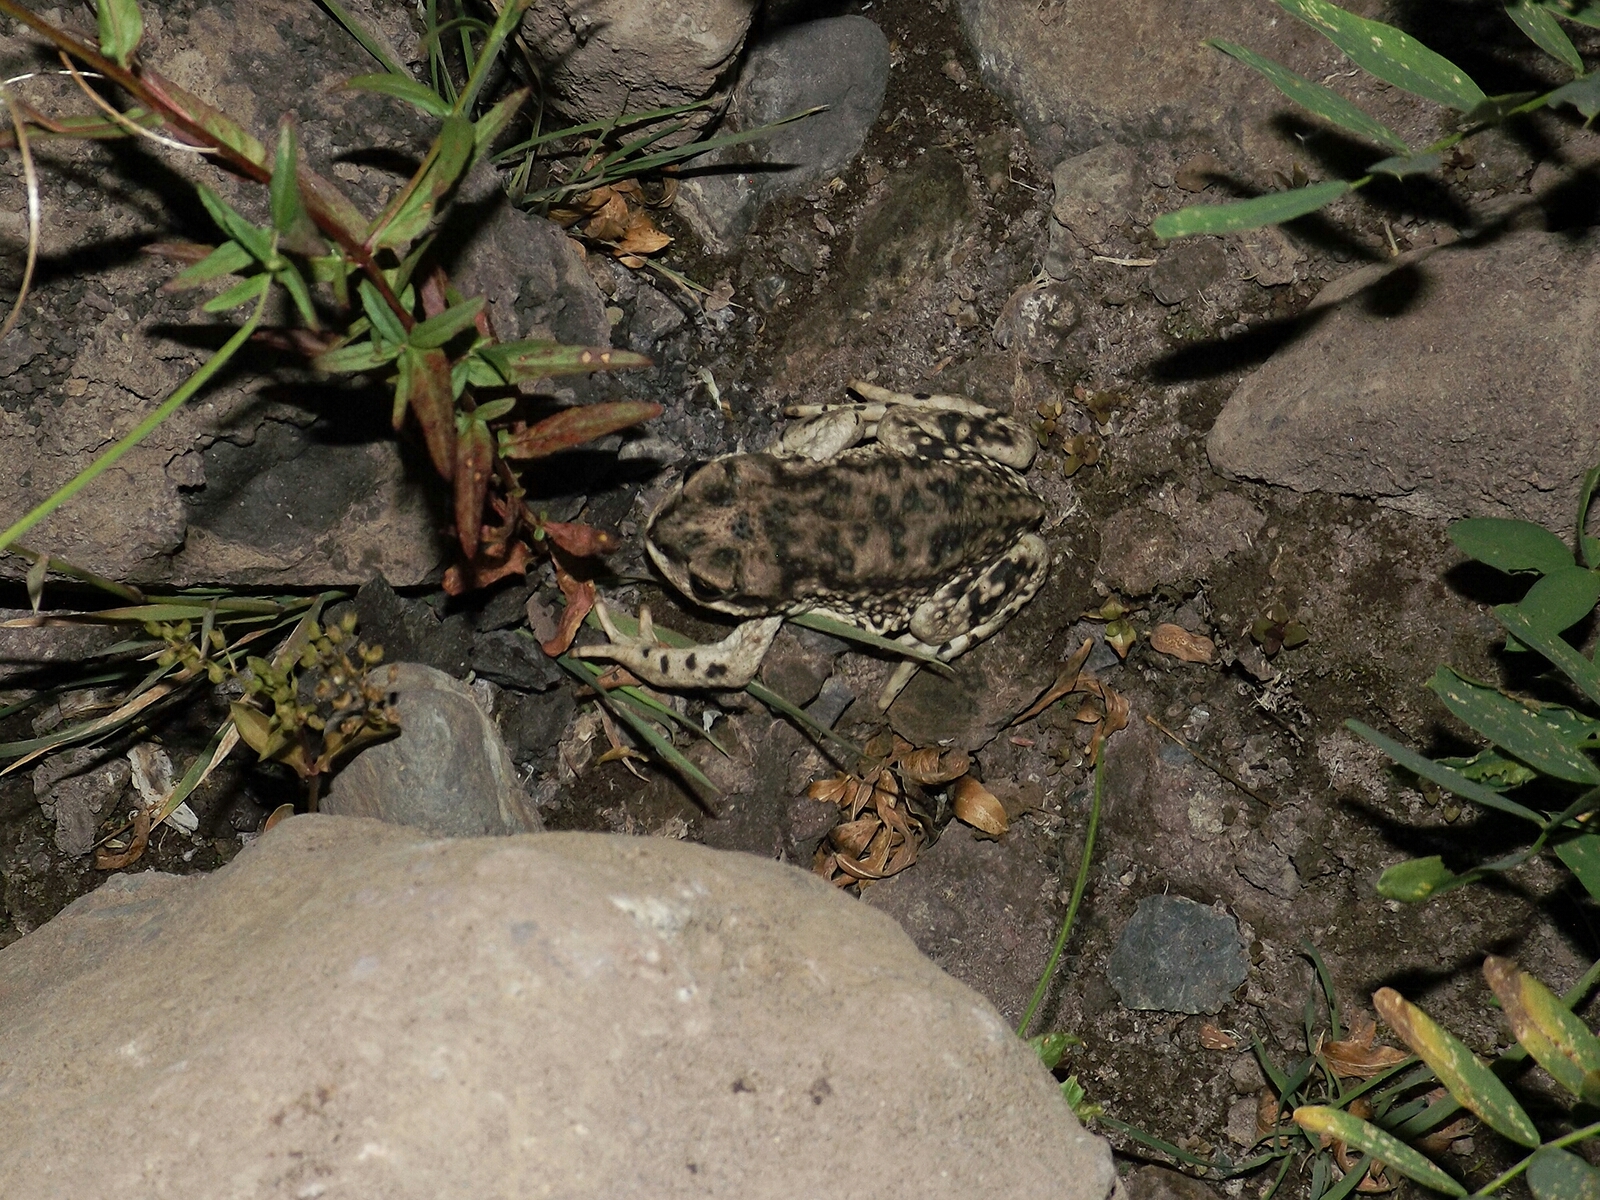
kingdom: Animalia
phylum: Chordata
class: Amphibia
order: Anura
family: Bufonidae
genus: Rhinella
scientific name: Rhinella arunco
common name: Concepcion toad
